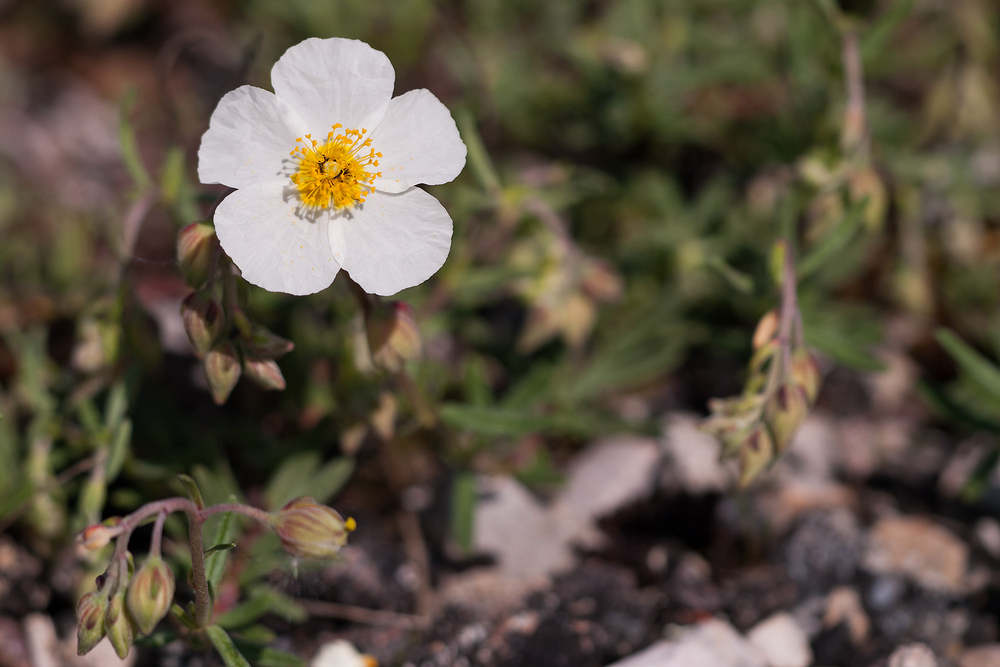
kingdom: Plantae
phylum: Tracheophyta
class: Magnoliopsida
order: Malvales
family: Cistaceae
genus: Helianthemum
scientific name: Helianthemum apenninum
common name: White rock-rose
